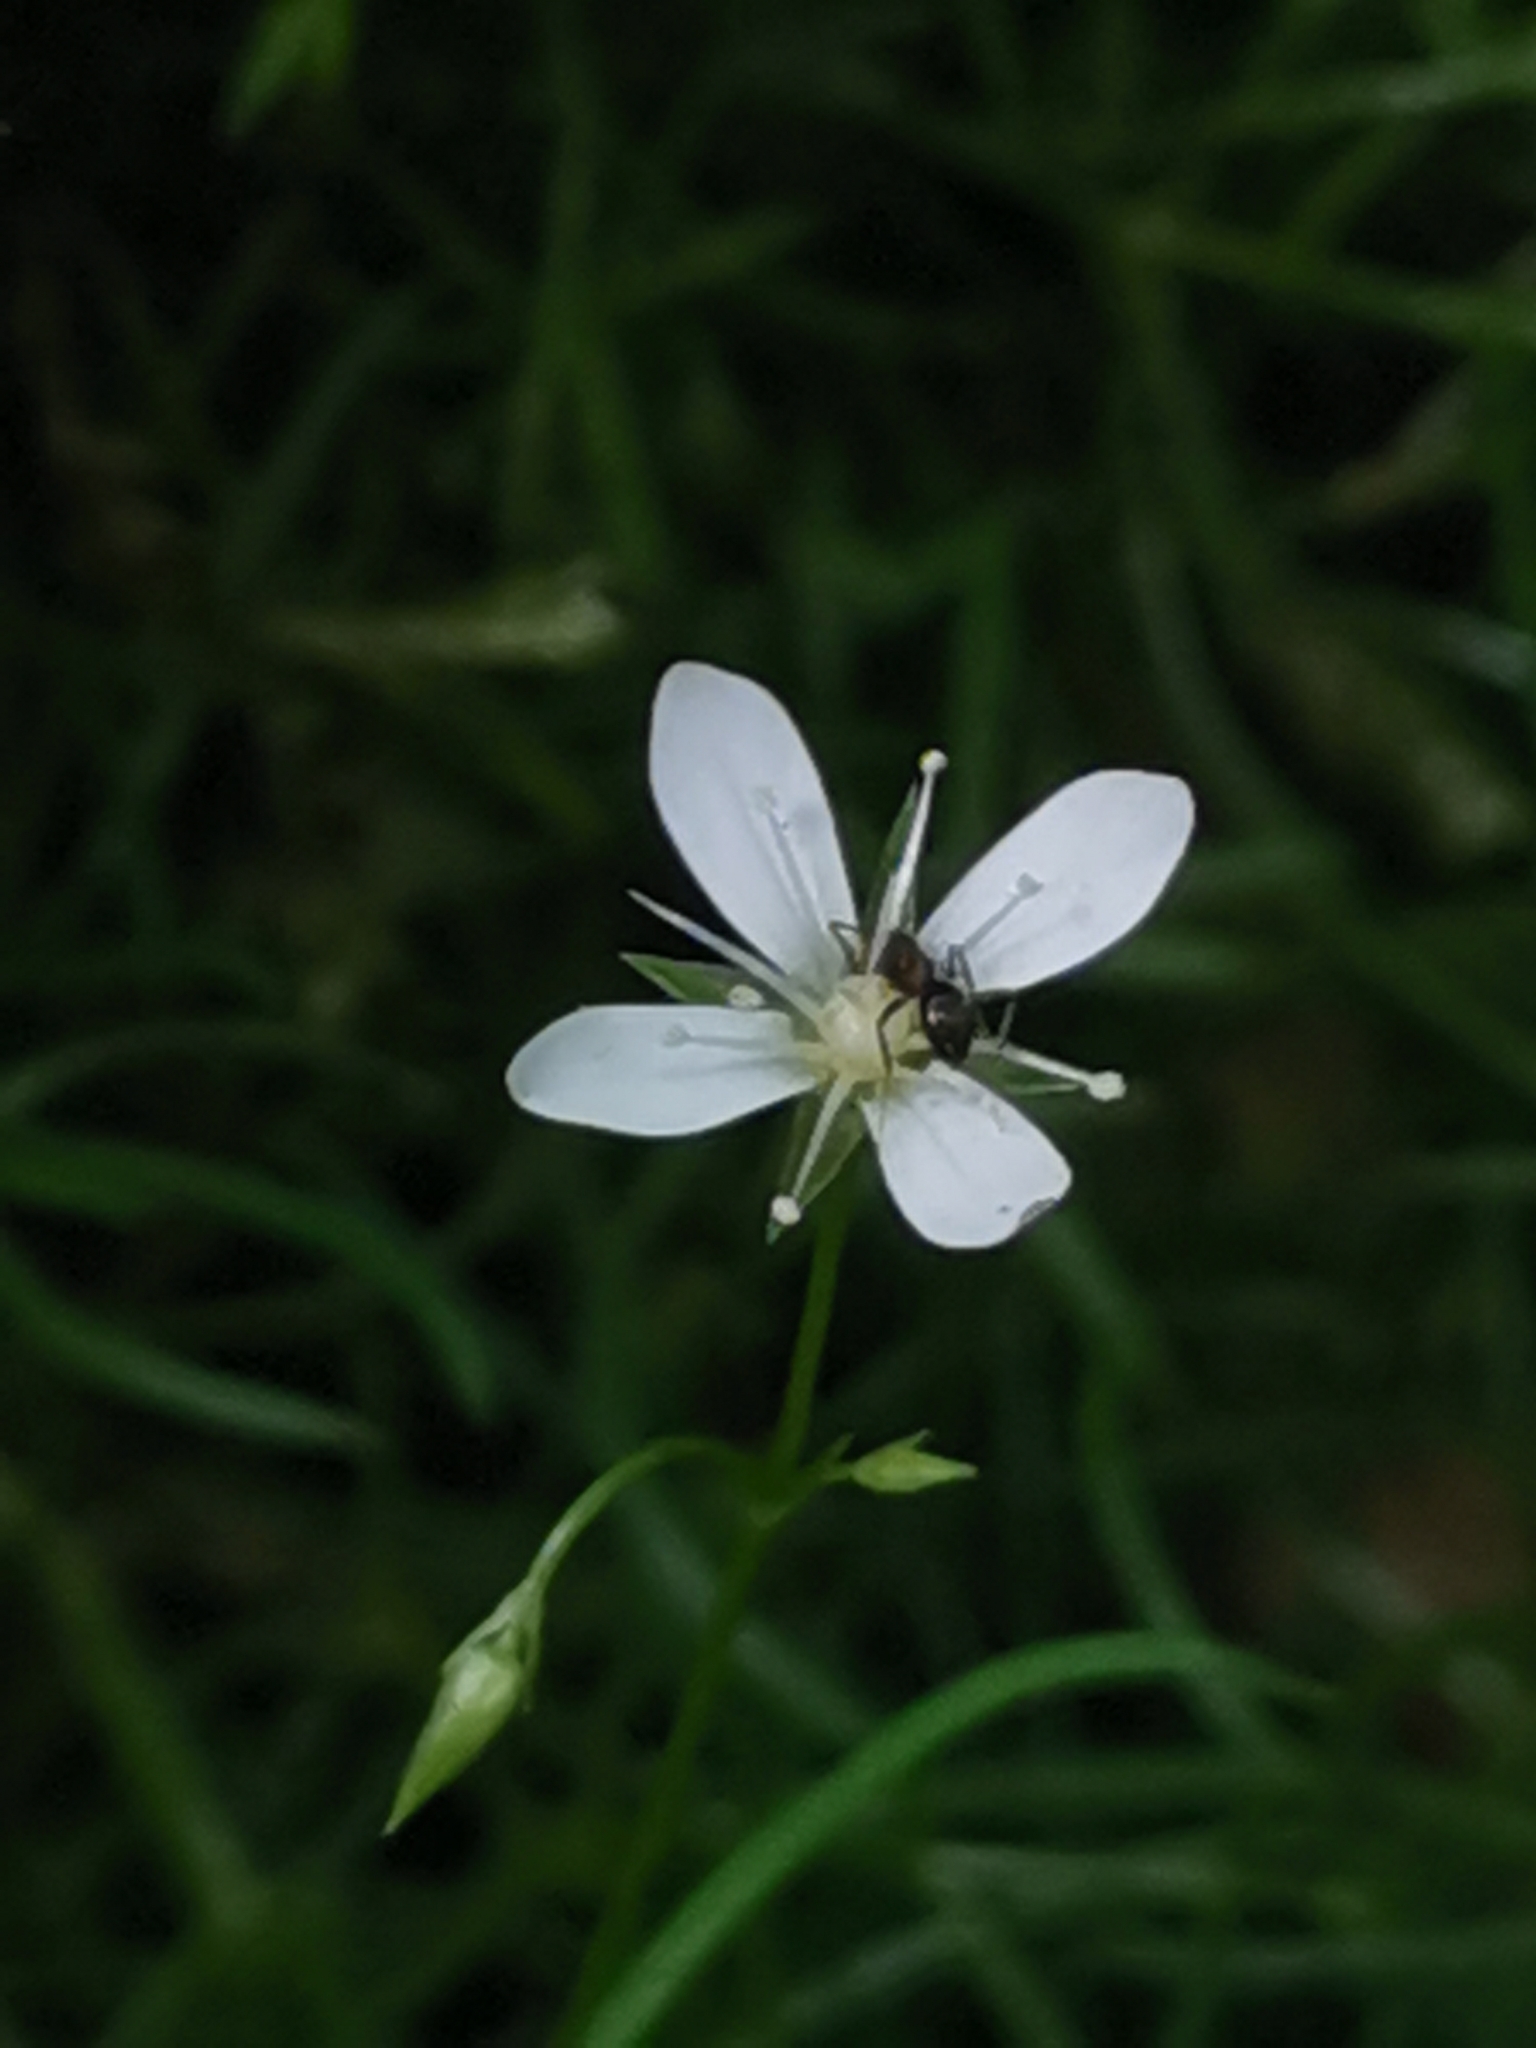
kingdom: Plantae
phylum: Tracheophyta
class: Magnoliopsida
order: Caryophyllales
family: Caryophyllaceae
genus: Moehringia
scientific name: Moehringia muscosa
